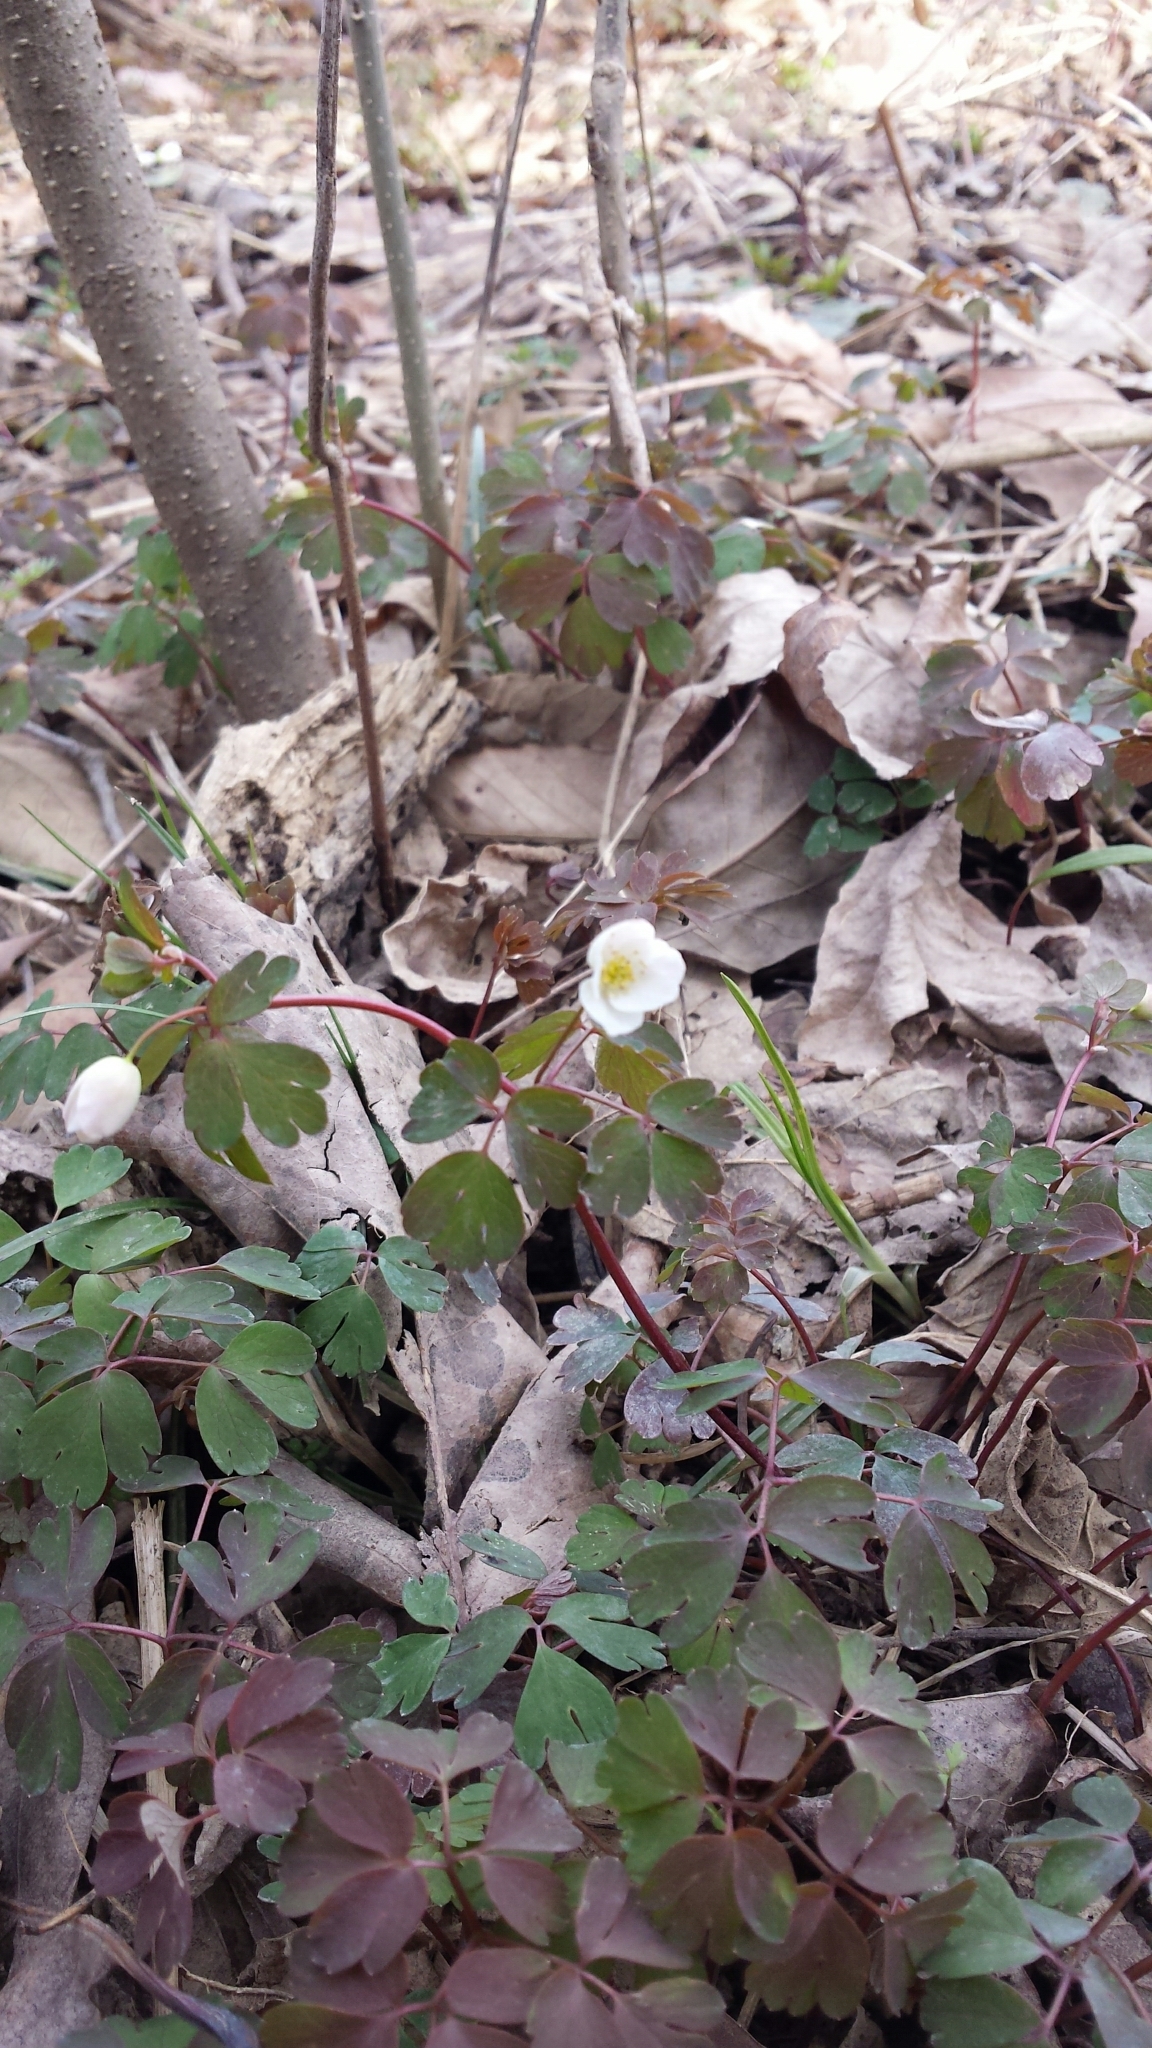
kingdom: Plantae
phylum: Tracheophyta
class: Magnoliopsida
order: Ranunculales
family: Ranunculaceae
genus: Enemion
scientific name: Enemion biternatum
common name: Eastern false rue-anemone
